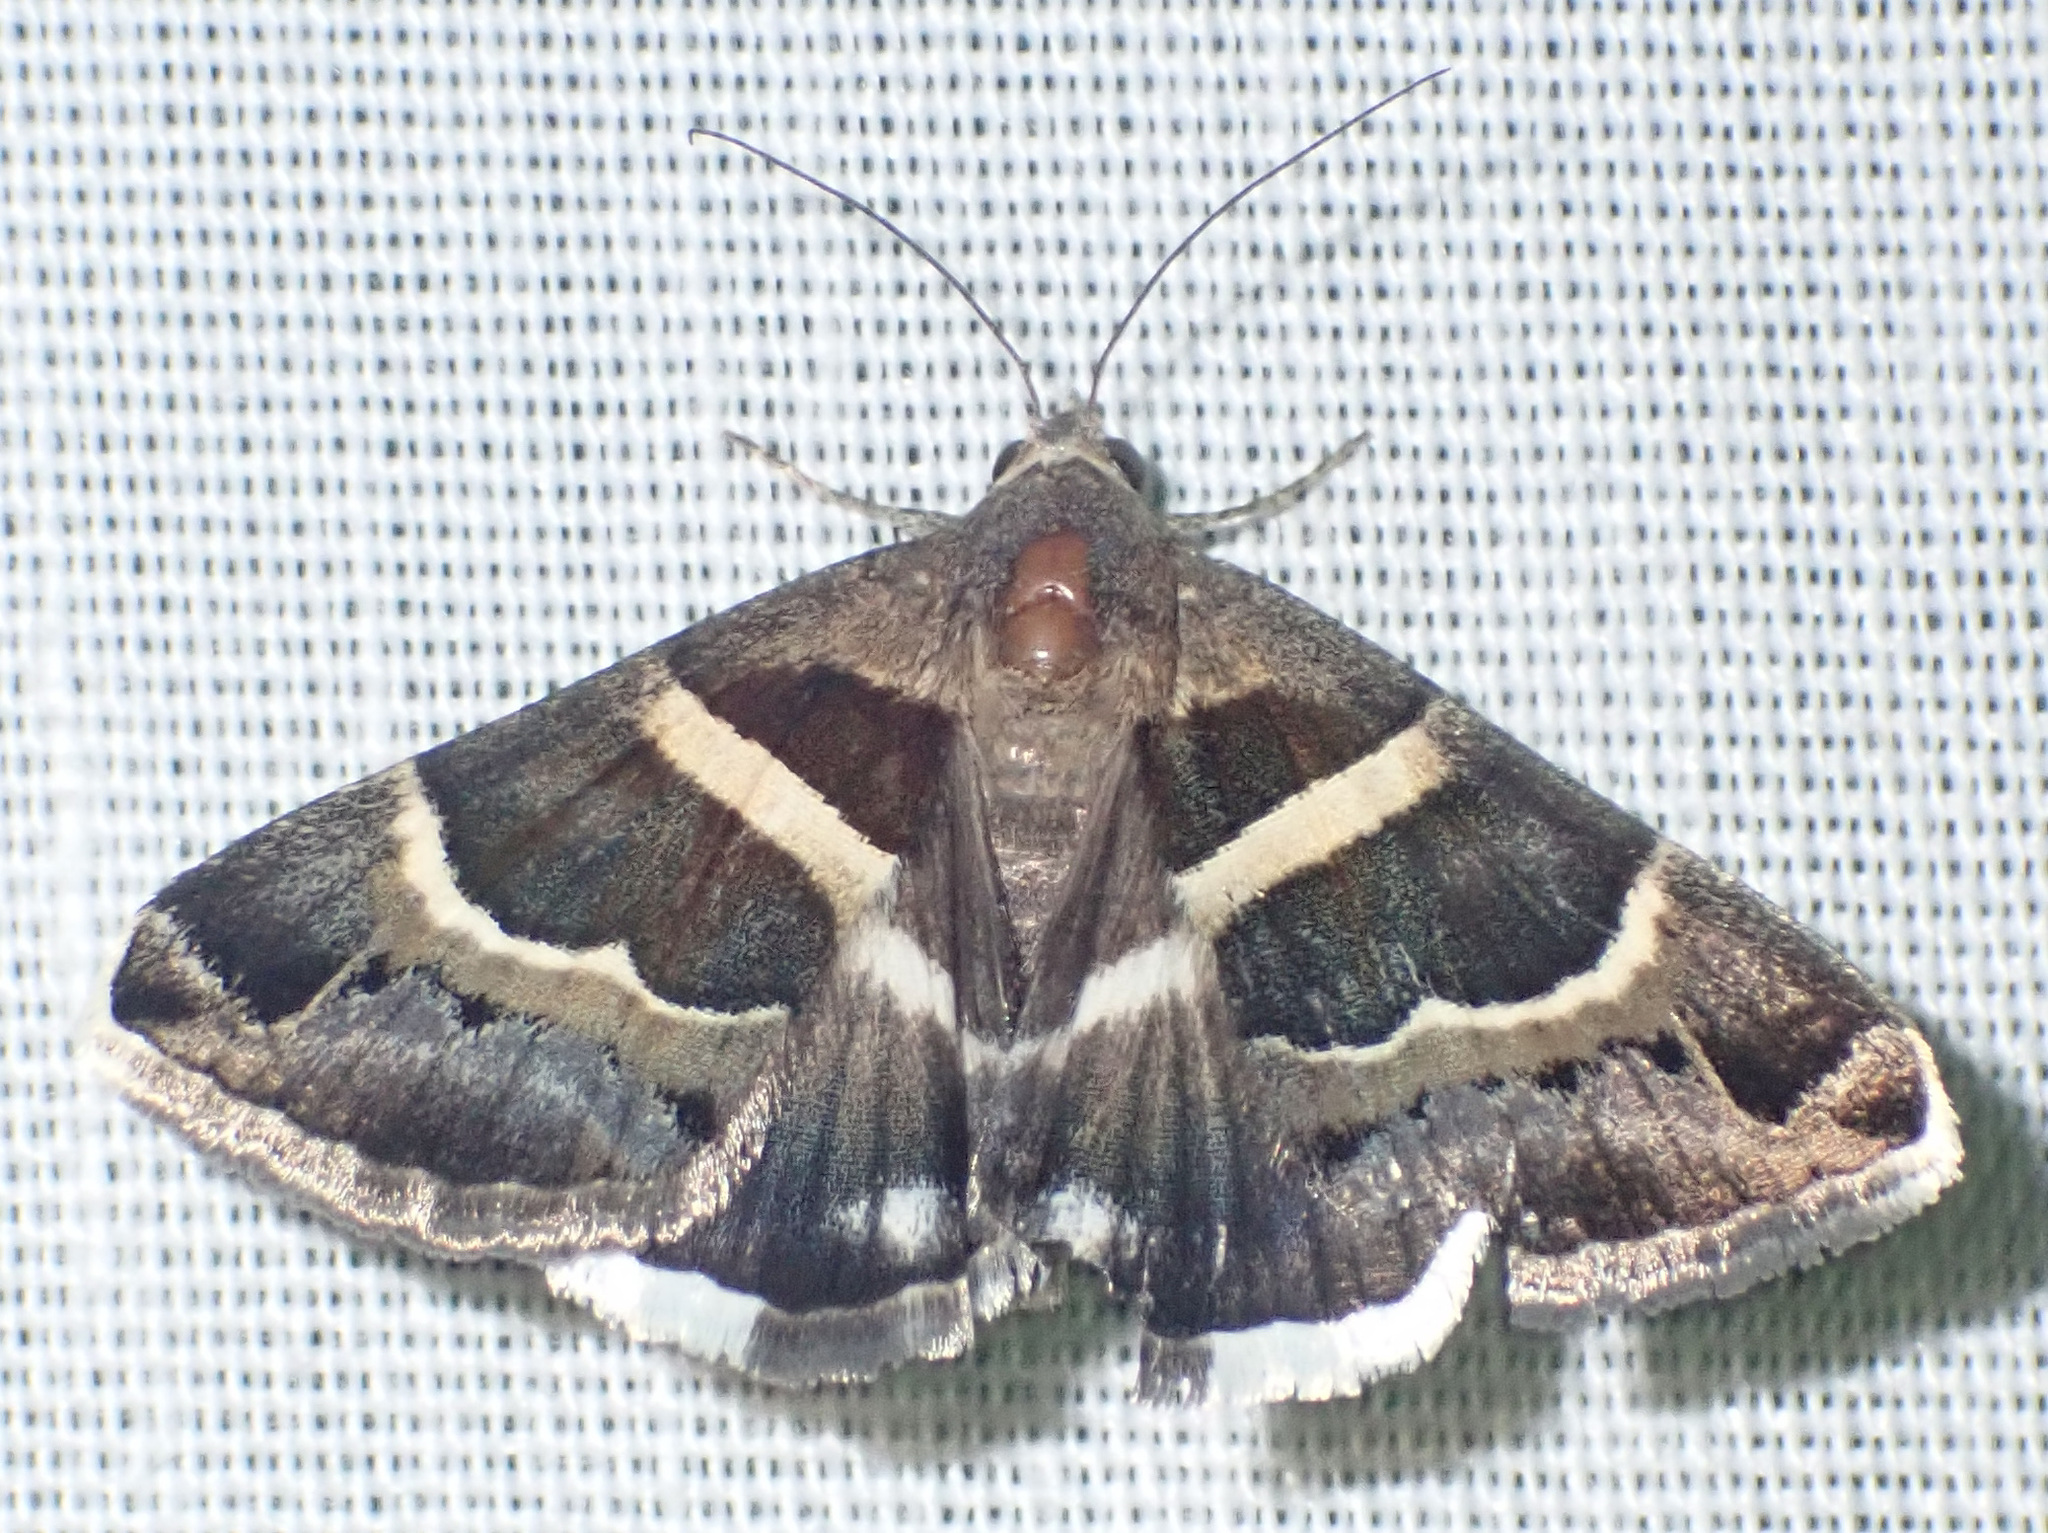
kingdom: Animalia
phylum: Arthropoda
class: Insecta
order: Lepidoptera
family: Erebidae
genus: Grammodes
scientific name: Grammodes stolida
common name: Geometrician
